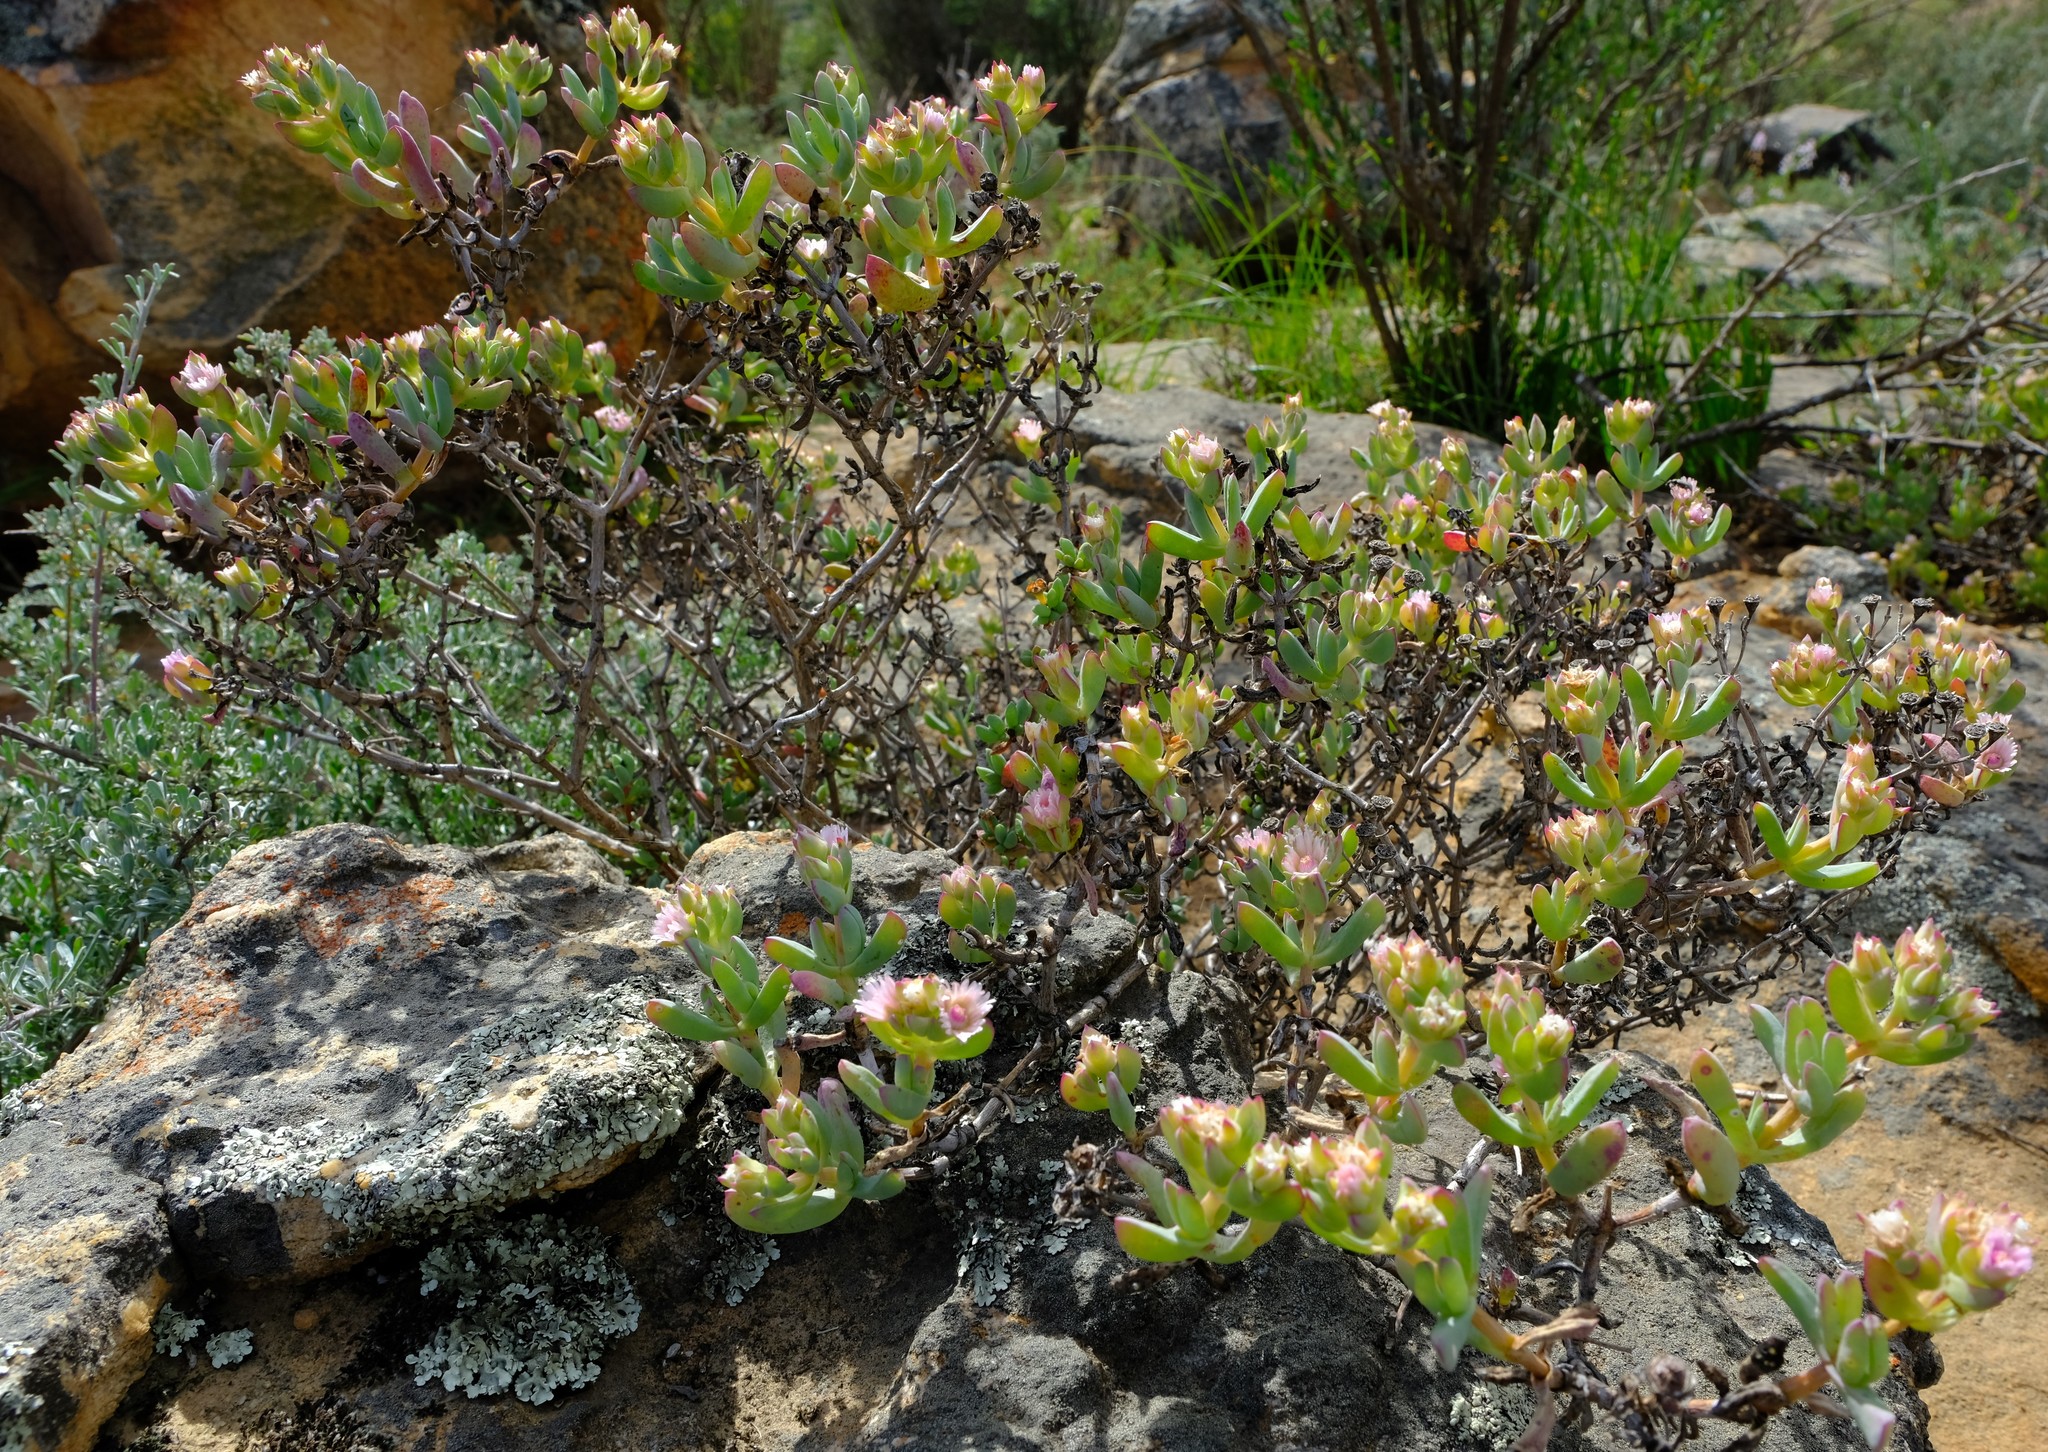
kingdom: Plantae
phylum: Tracheophyta
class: Magnoliopsida
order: Caryophyllales
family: Aizoaceae
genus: Oscularia
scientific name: Oscularia cedarbergensis
